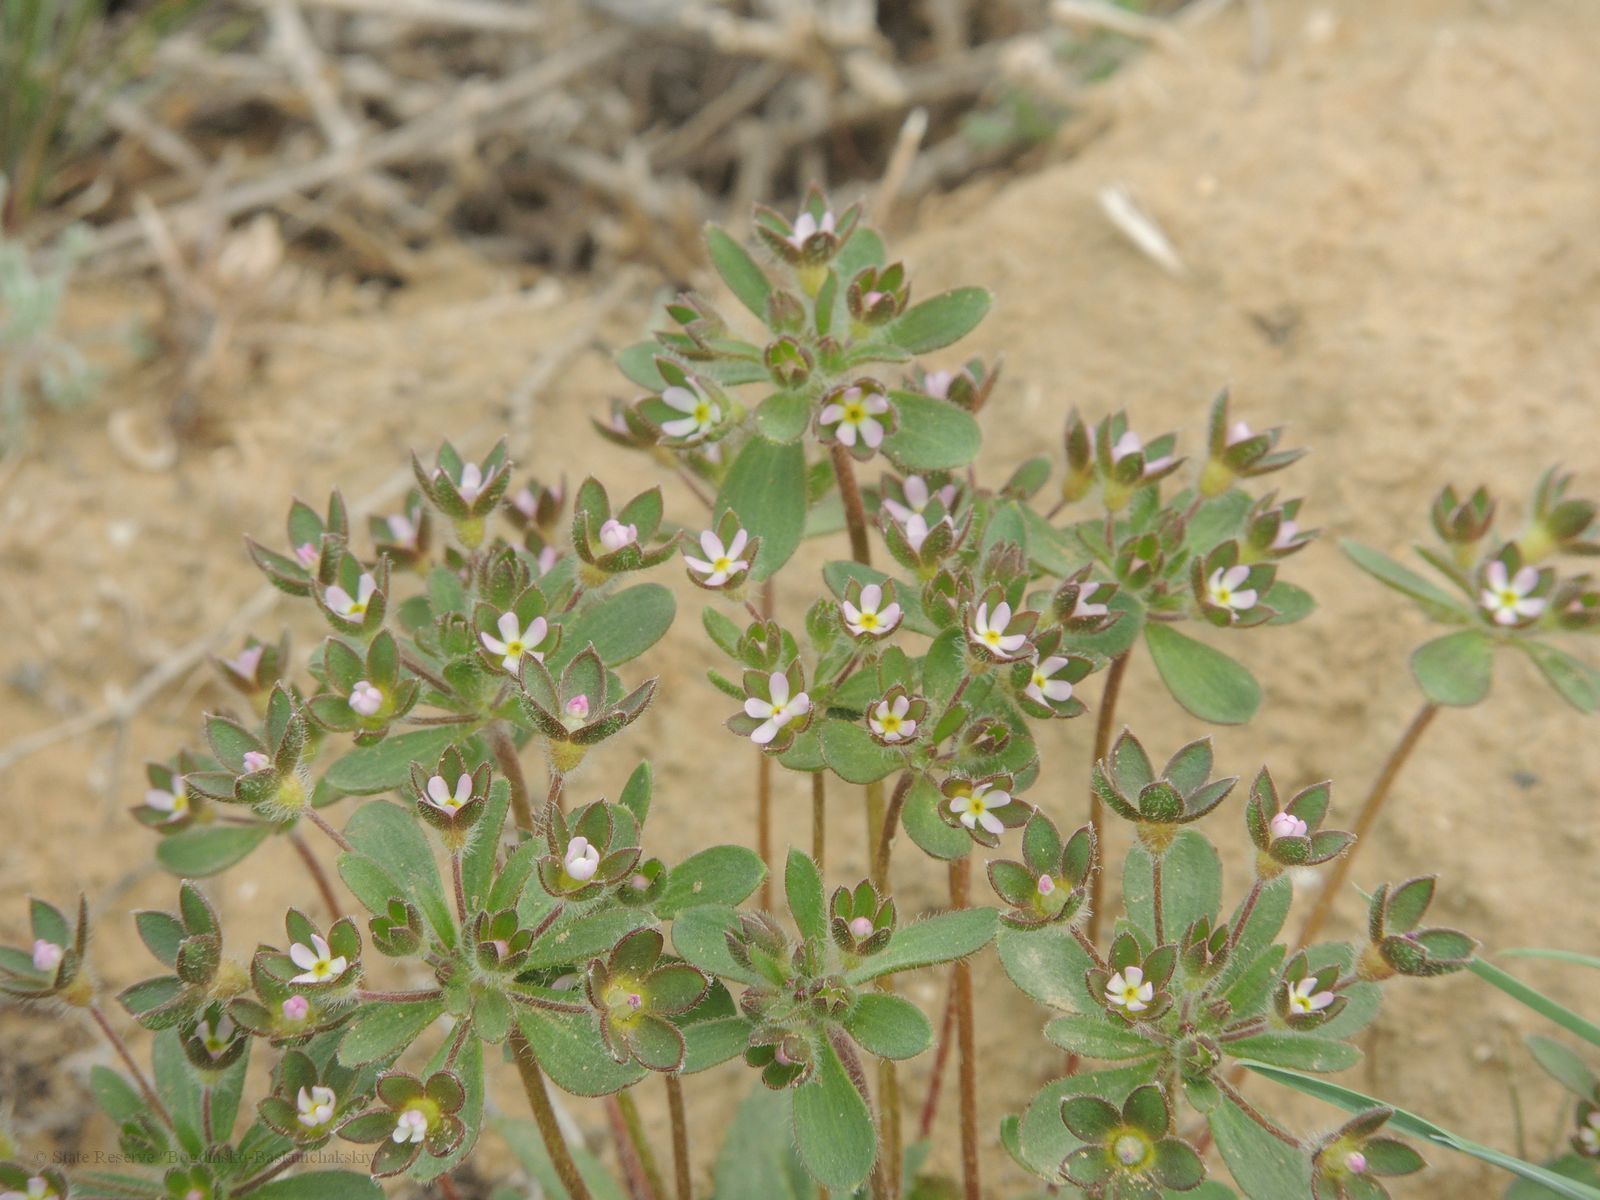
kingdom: Plantae
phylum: Tracheophyta
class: Magnoliopsida
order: Ericales
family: Primulaceae
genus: Androsace
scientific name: Androsace maxima
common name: Annual androsace
